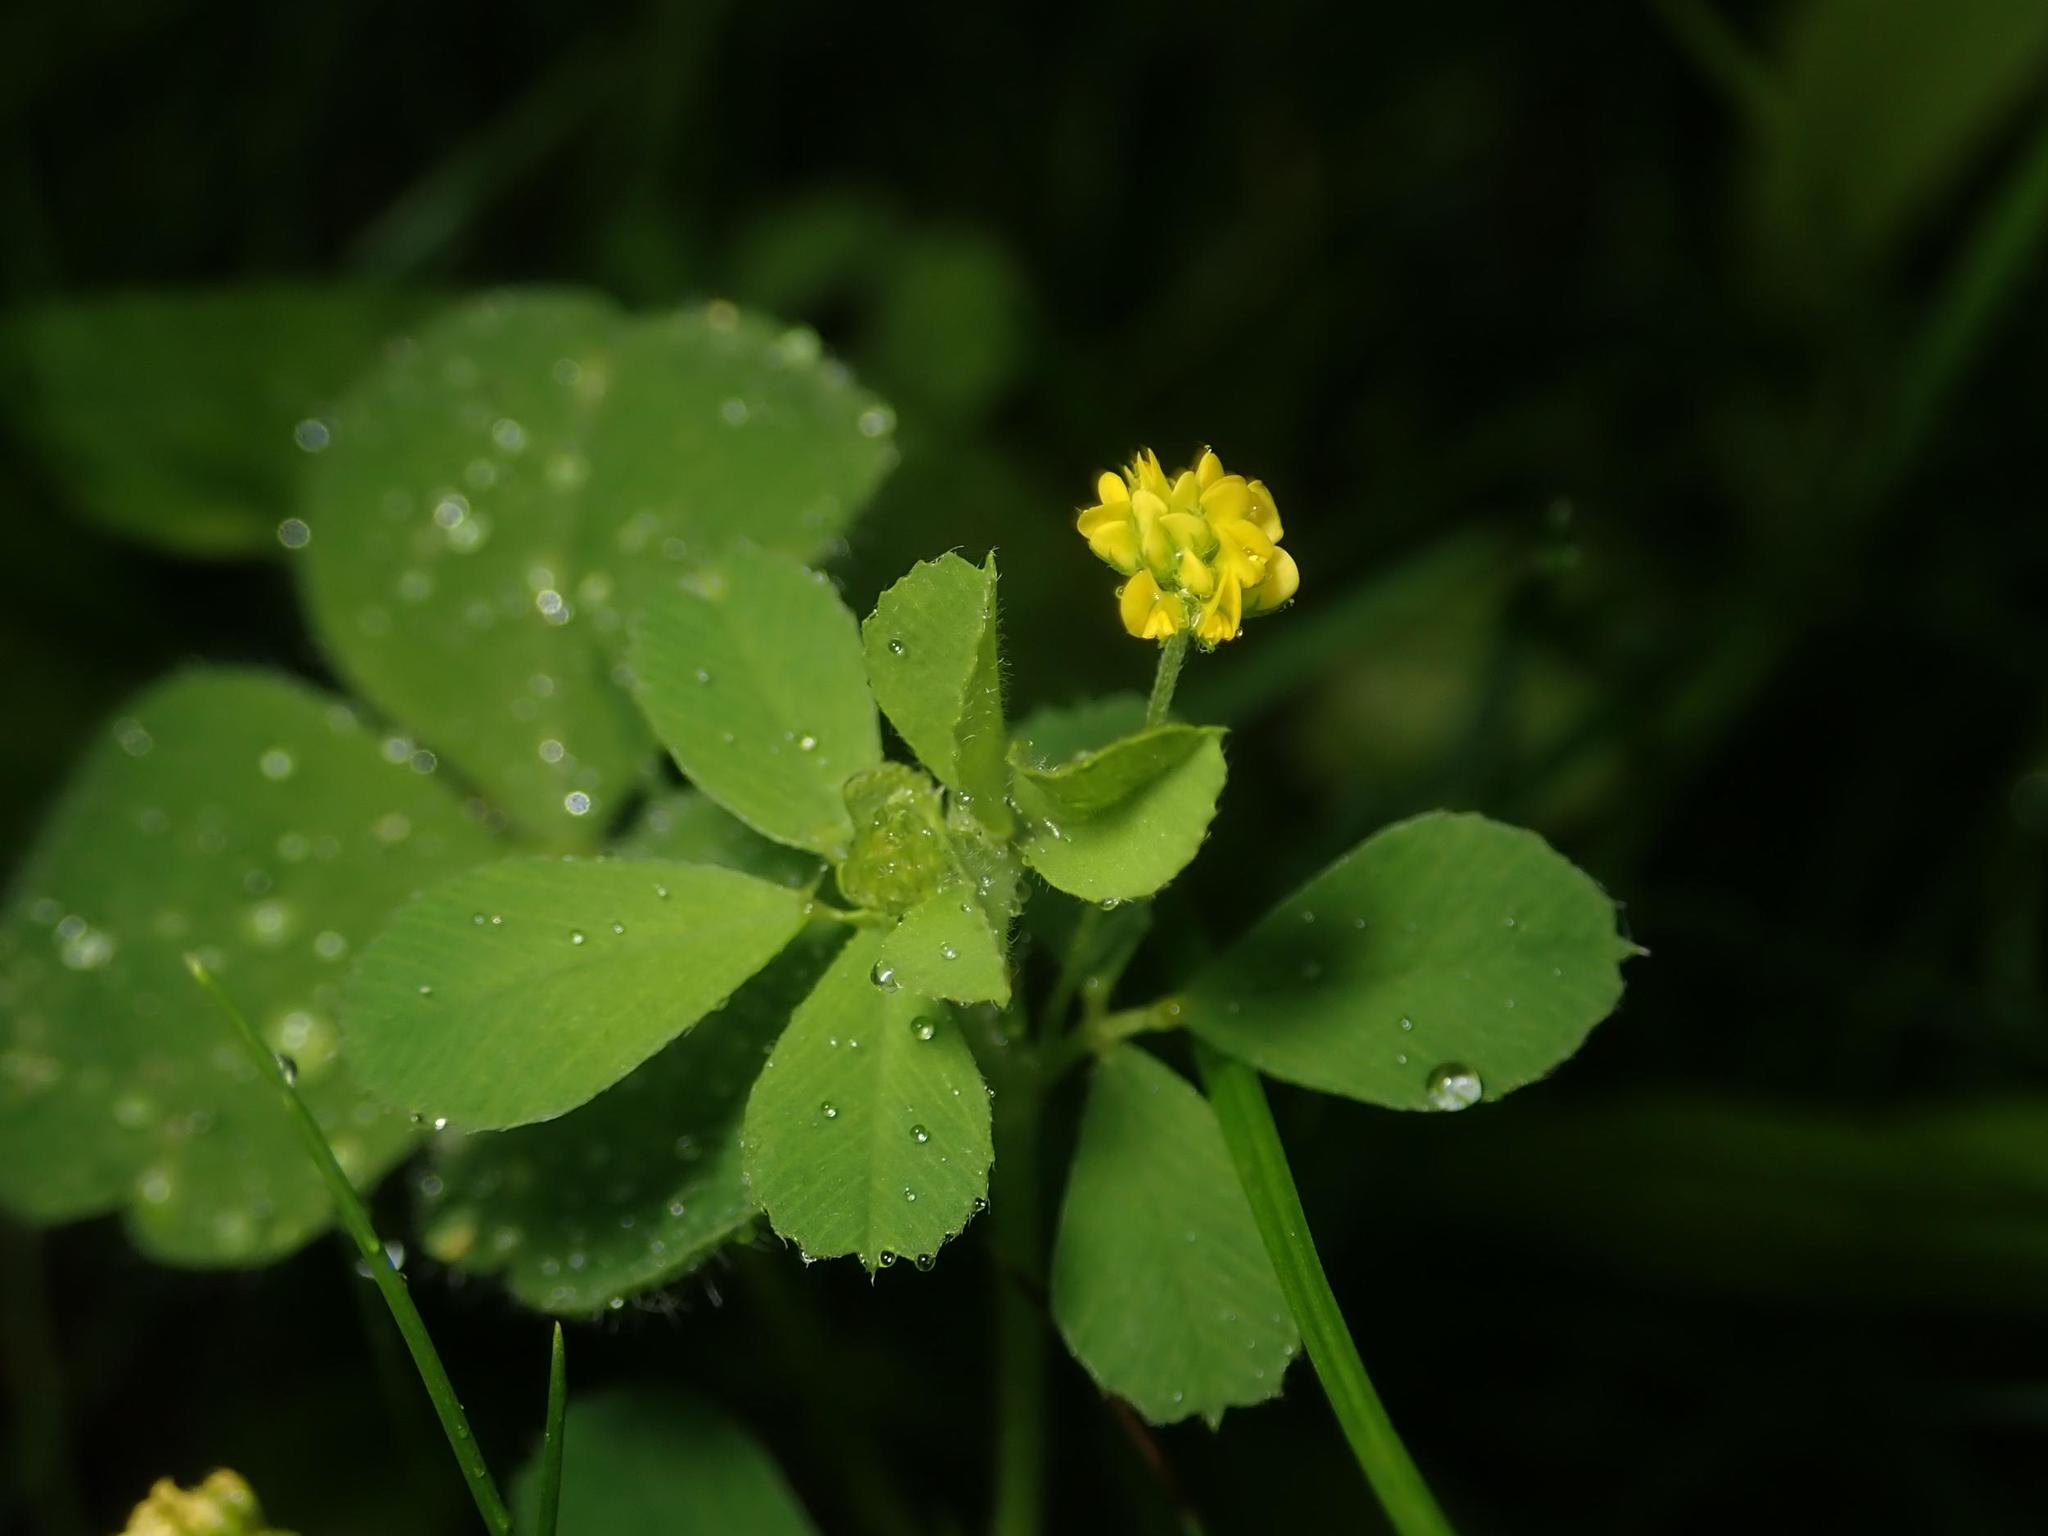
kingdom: Plantae
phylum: Tracheophyta
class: Magnoliopsida
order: Fabales
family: Fabaceae
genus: Medicago
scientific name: Medicago lupulina
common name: Black medick
